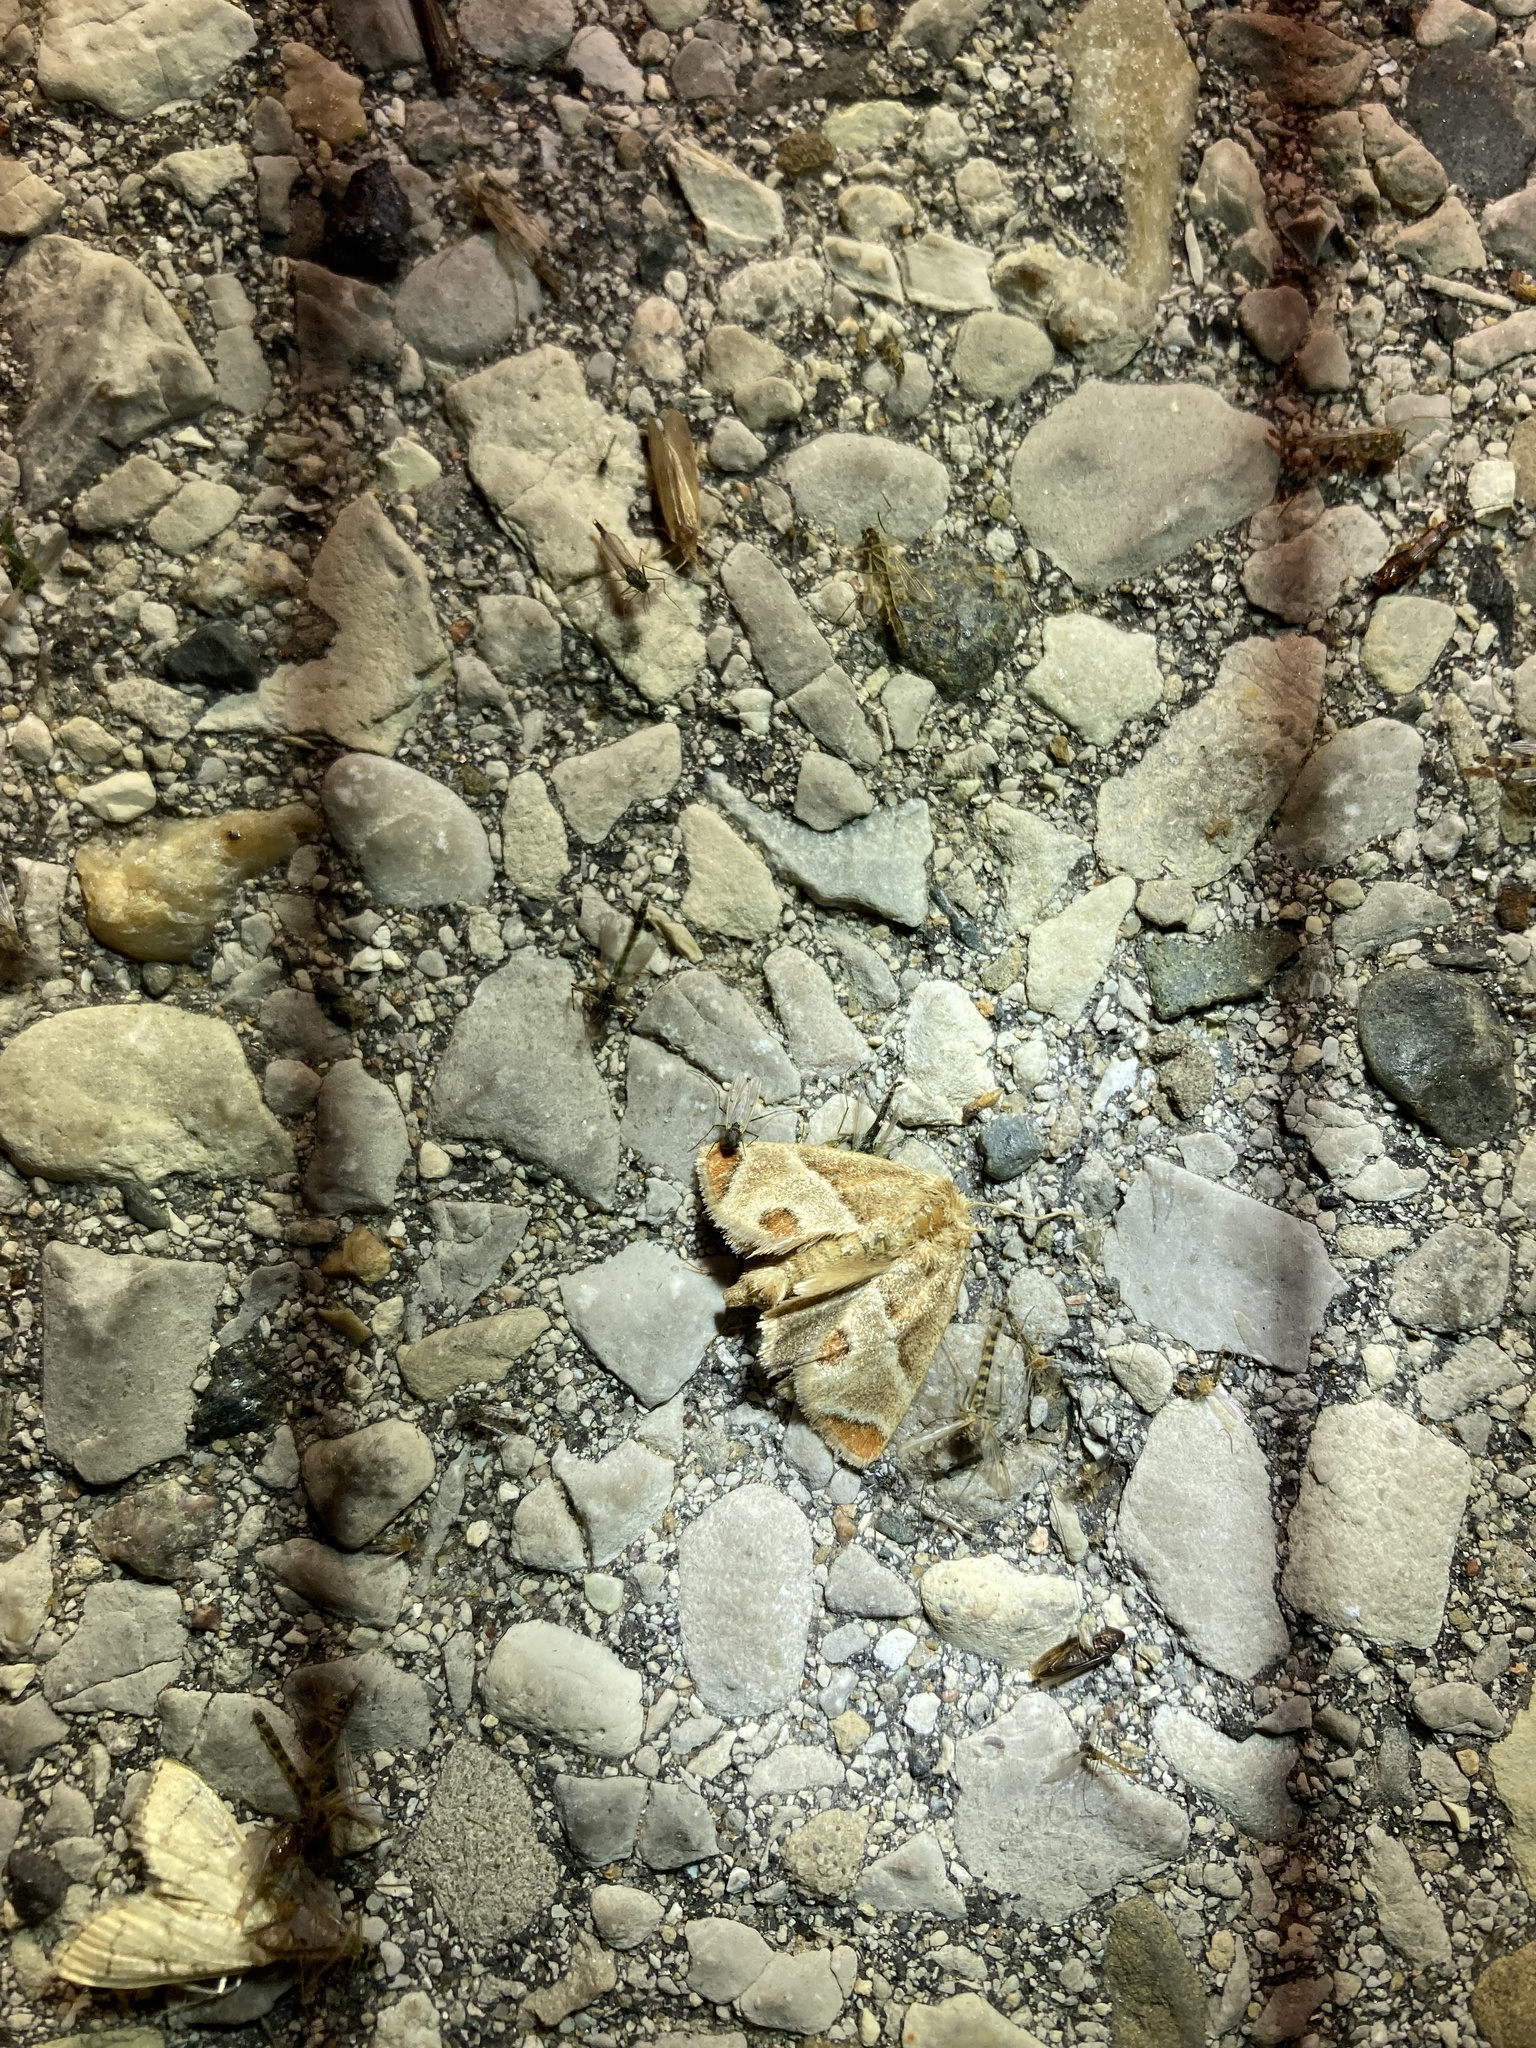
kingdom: Animalia
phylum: Arthropoda
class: Insecta
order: Lepidoptera
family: Limacodidae
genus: Apoda
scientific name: Apoda biguttata
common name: Shagreened slug moth
